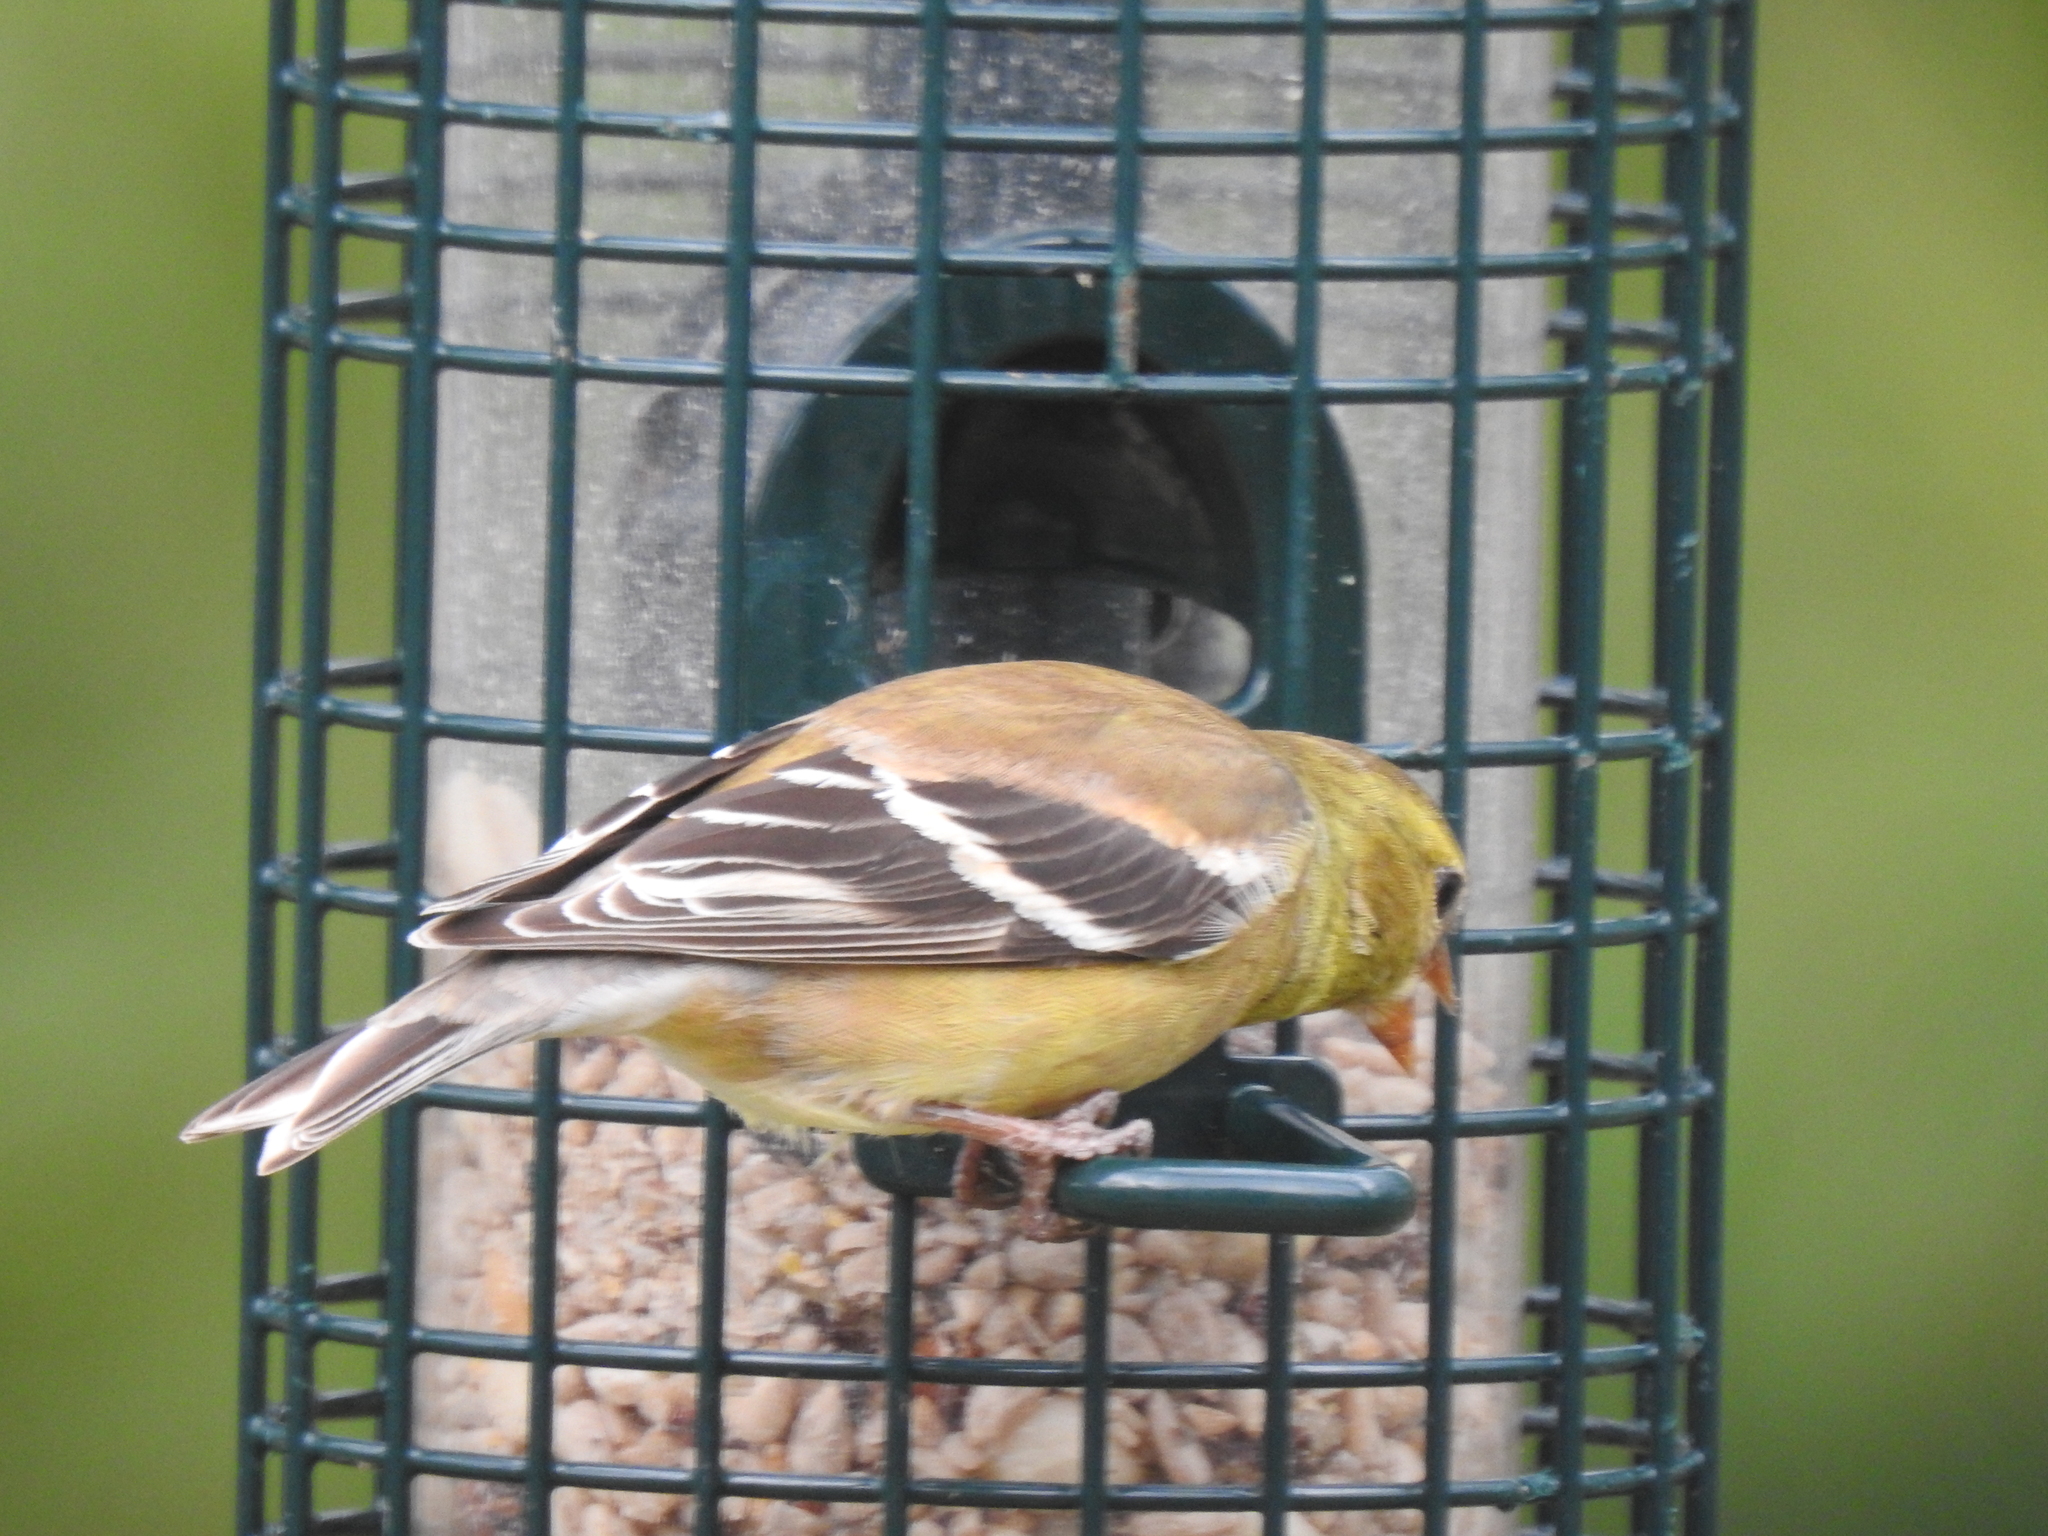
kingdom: Animalia
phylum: Chordata
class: Aves
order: Passeriformes
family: Fringillidae
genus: Spinus
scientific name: Spinus tristis
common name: American goldfinch
